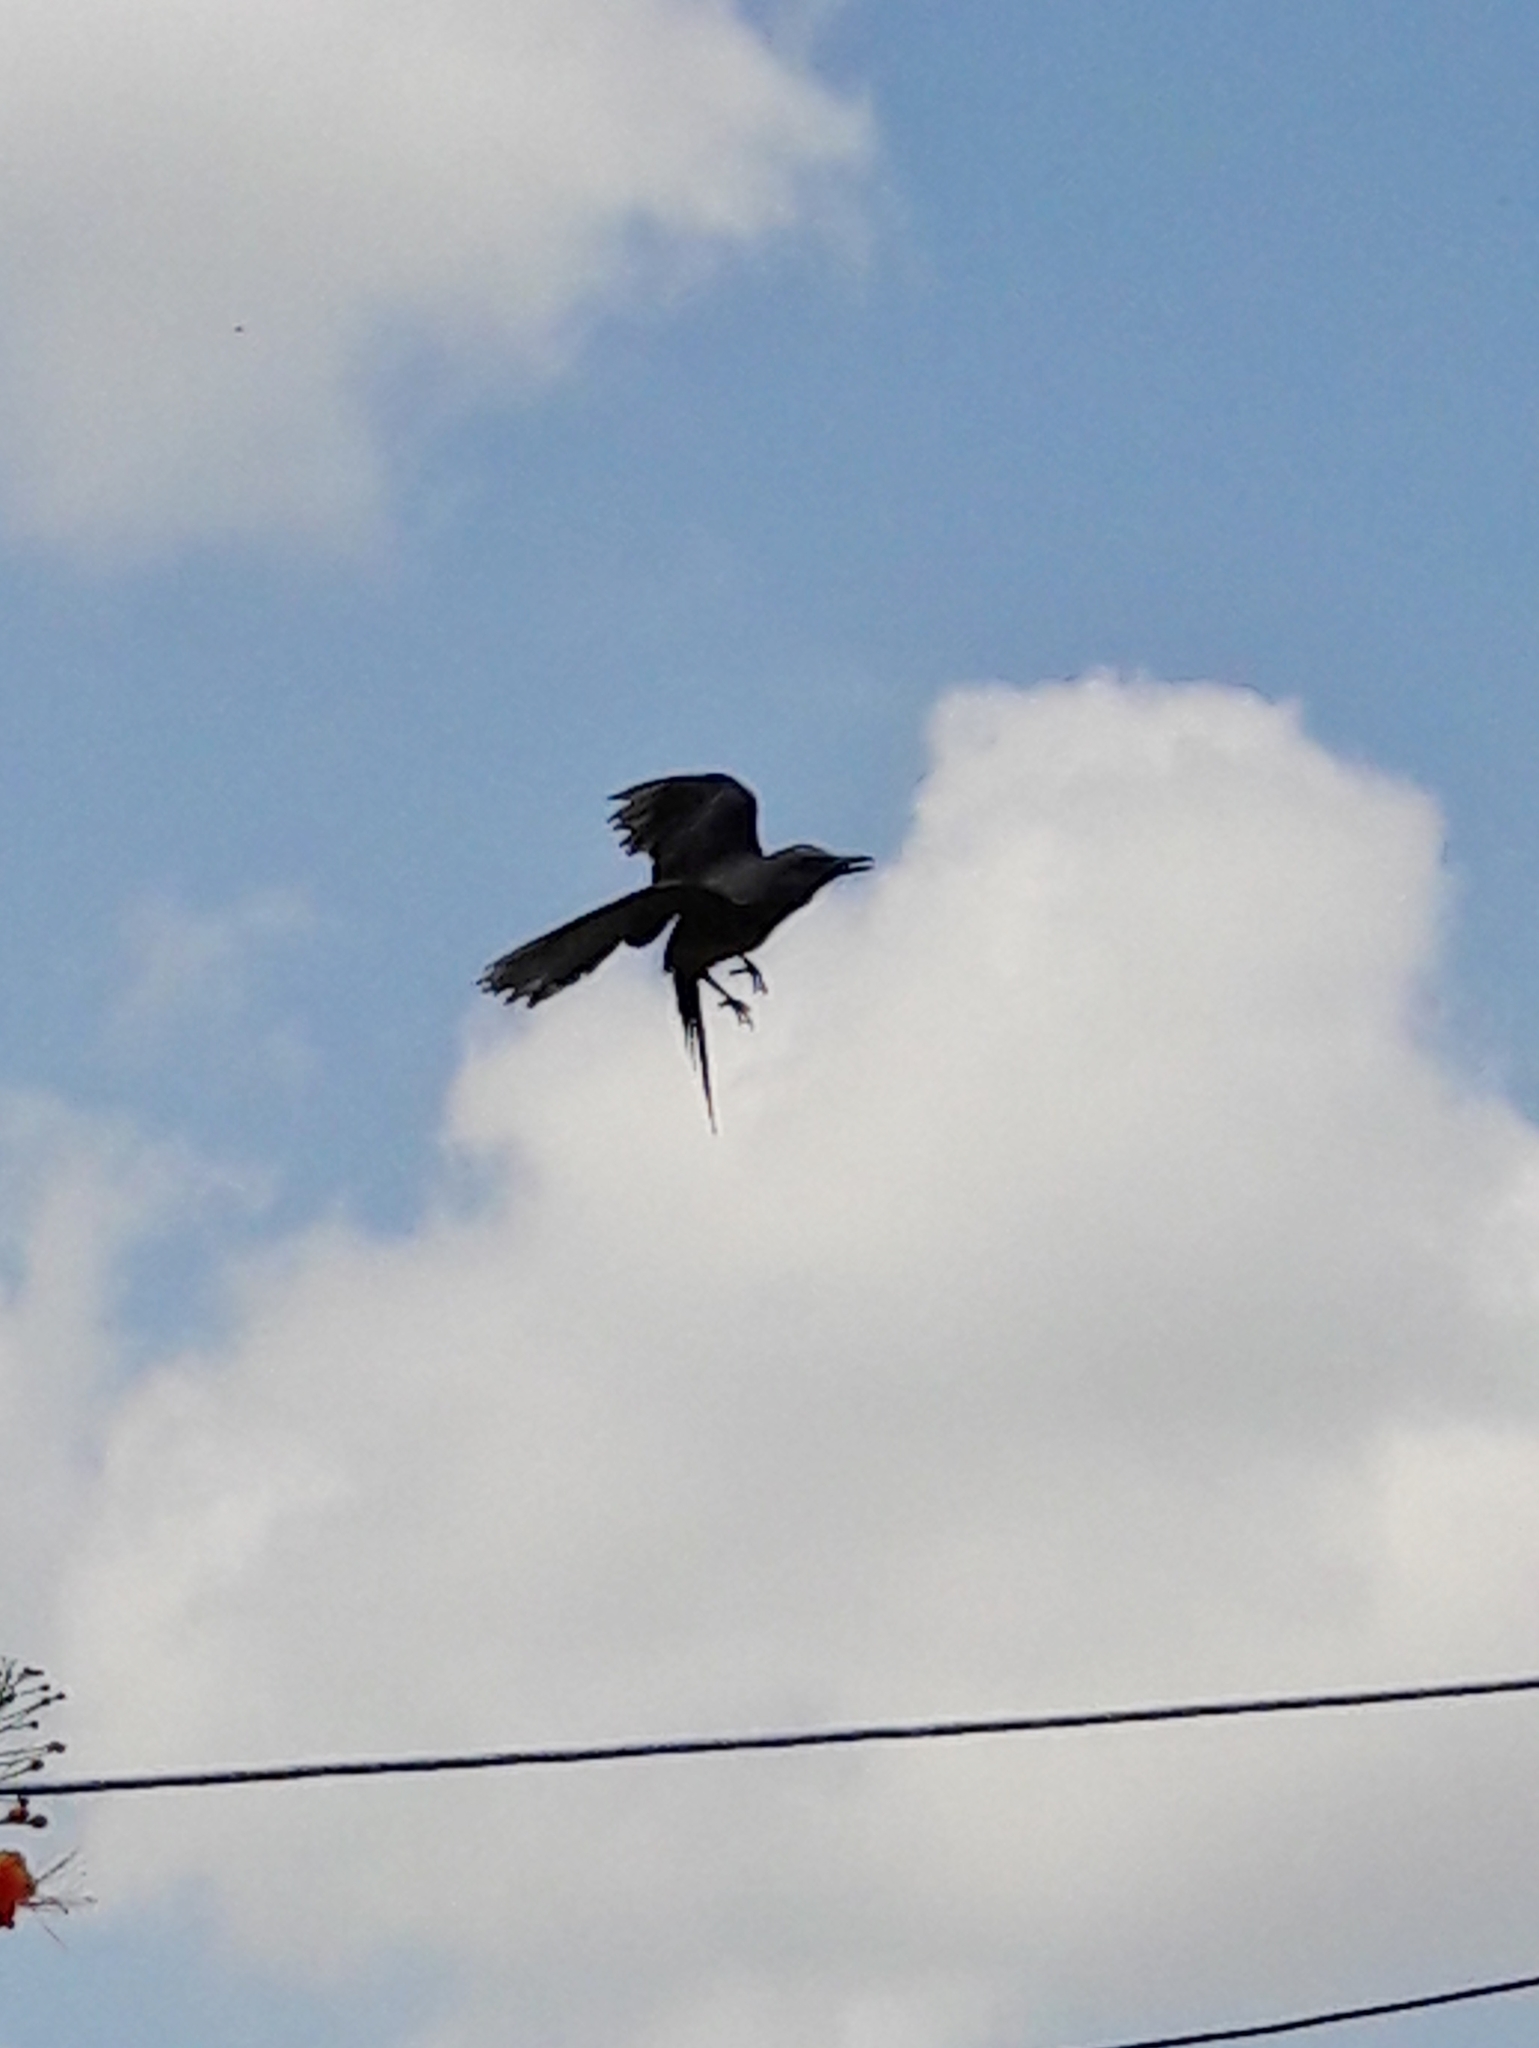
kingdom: Animalia
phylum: Chordata
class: Aves
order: Passeriformes
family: Tyrannidae
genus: Tyrannus
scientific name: Tyrannus melancholicus
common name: Tropical kingbird
